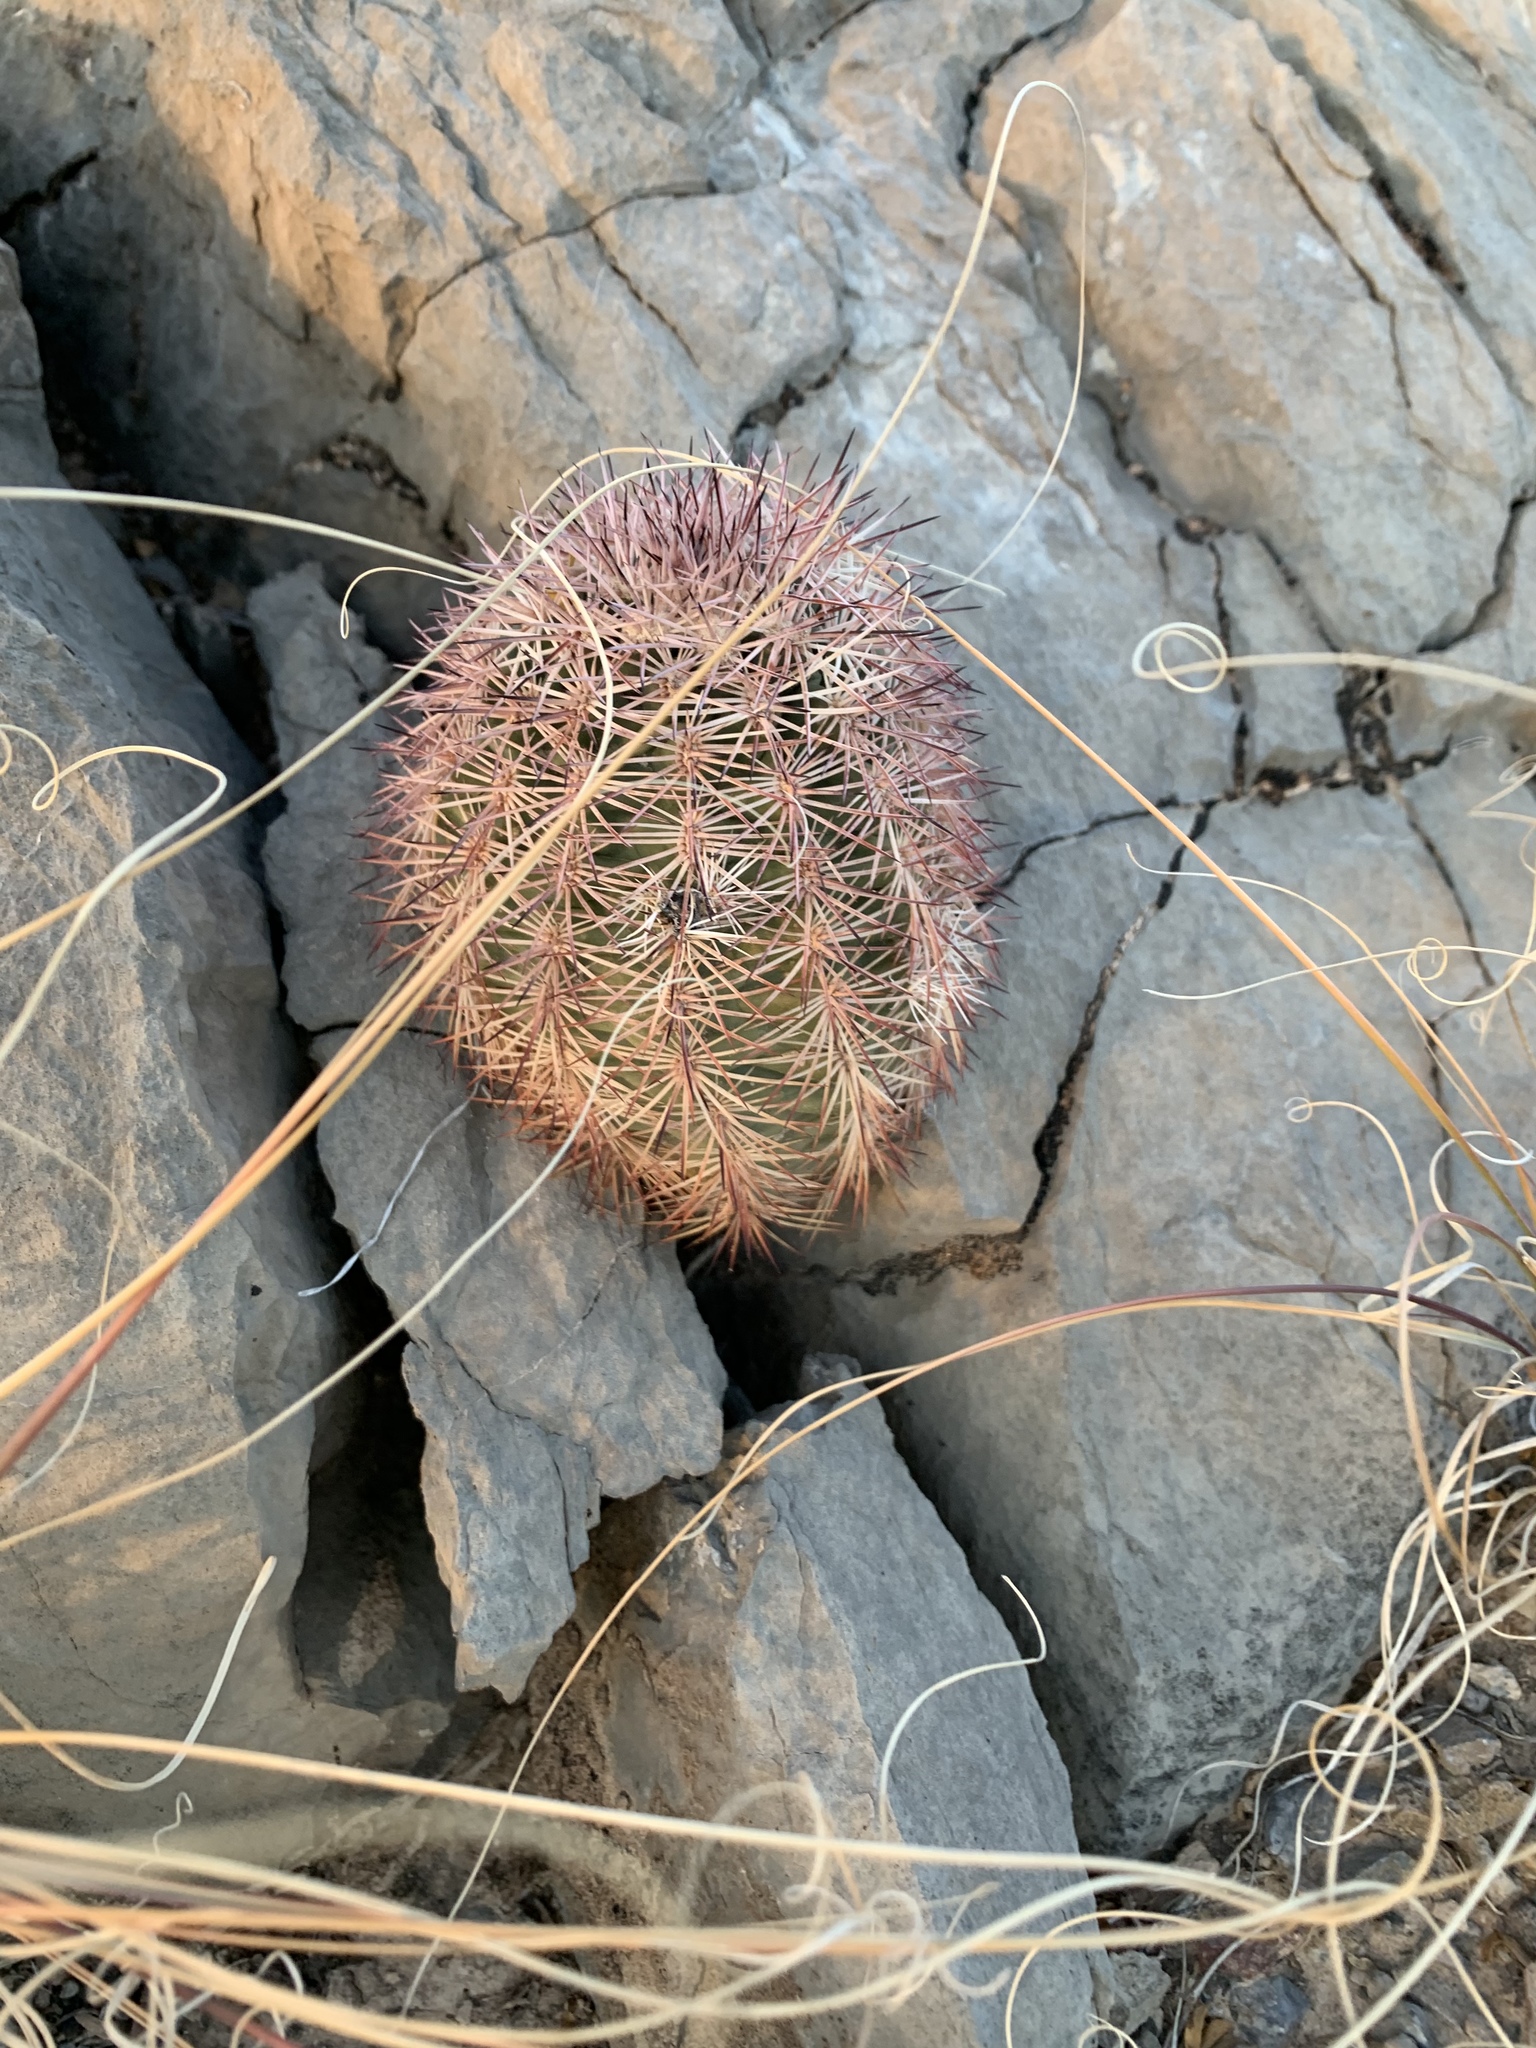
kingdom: Plantae
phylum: Tracheophyta
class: Magnoliopsida
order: Caryophyllales
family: Cactaceae
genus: Echinocereus
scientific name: Echinocereus dasyacanthus
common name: Spiny hedgehog cactus
